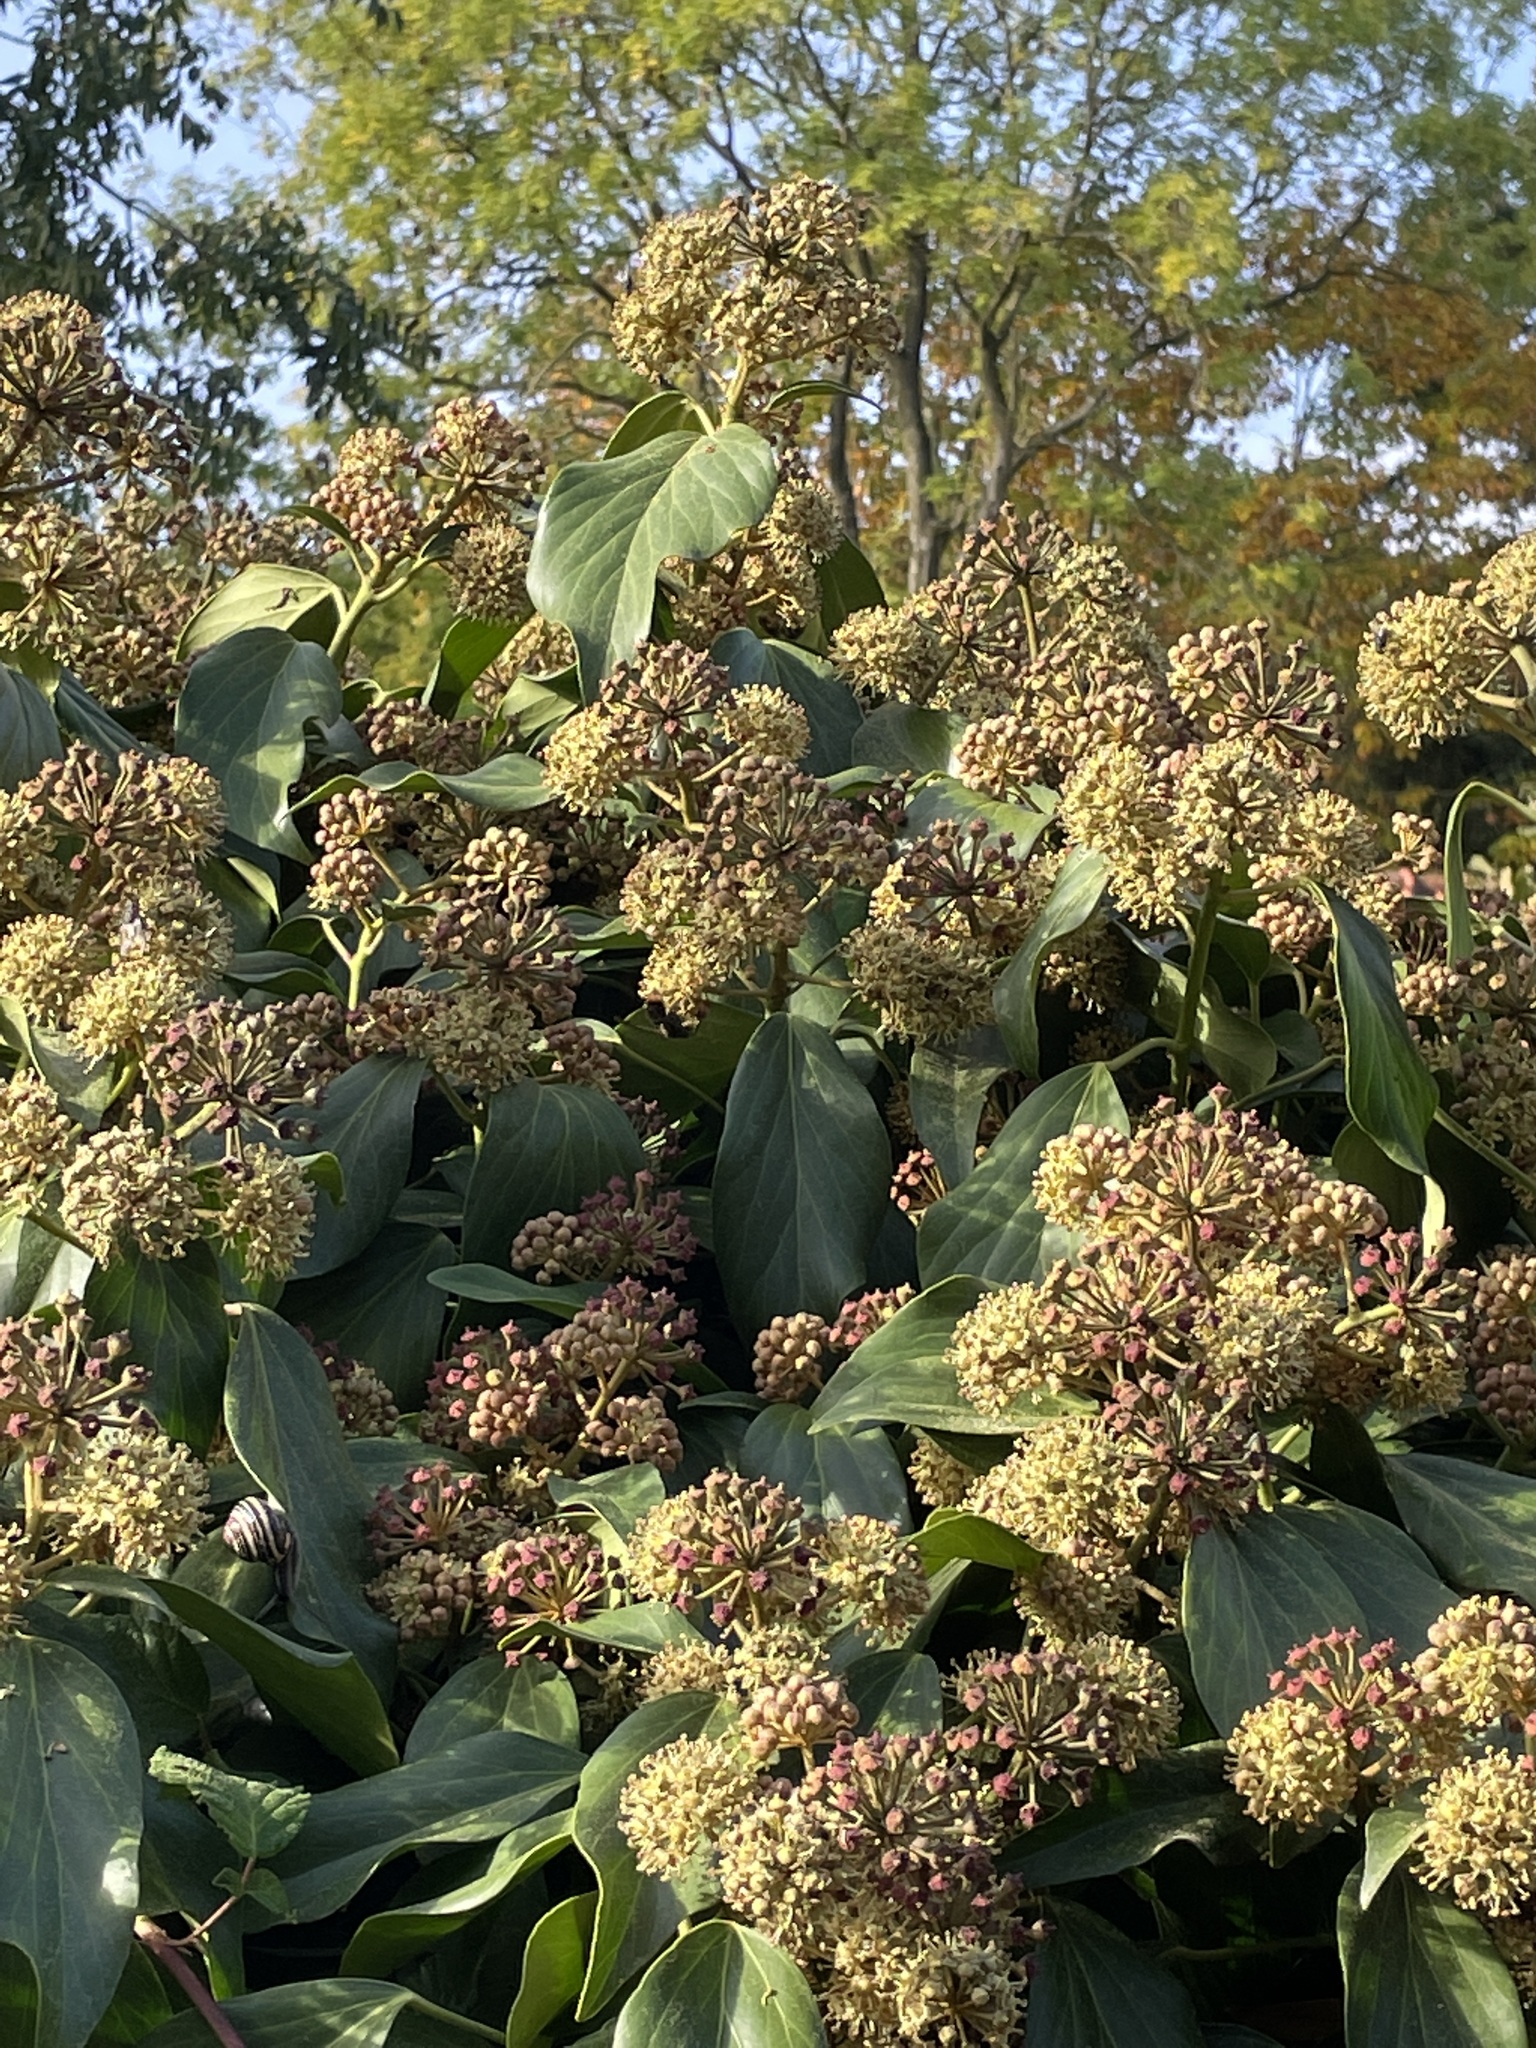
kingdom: Animalia
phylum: Arthropoda
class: Insecta
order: Hymenoptera
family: Vespidae
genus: Vespa
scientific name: Vespa velutina
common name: Asian hornet
